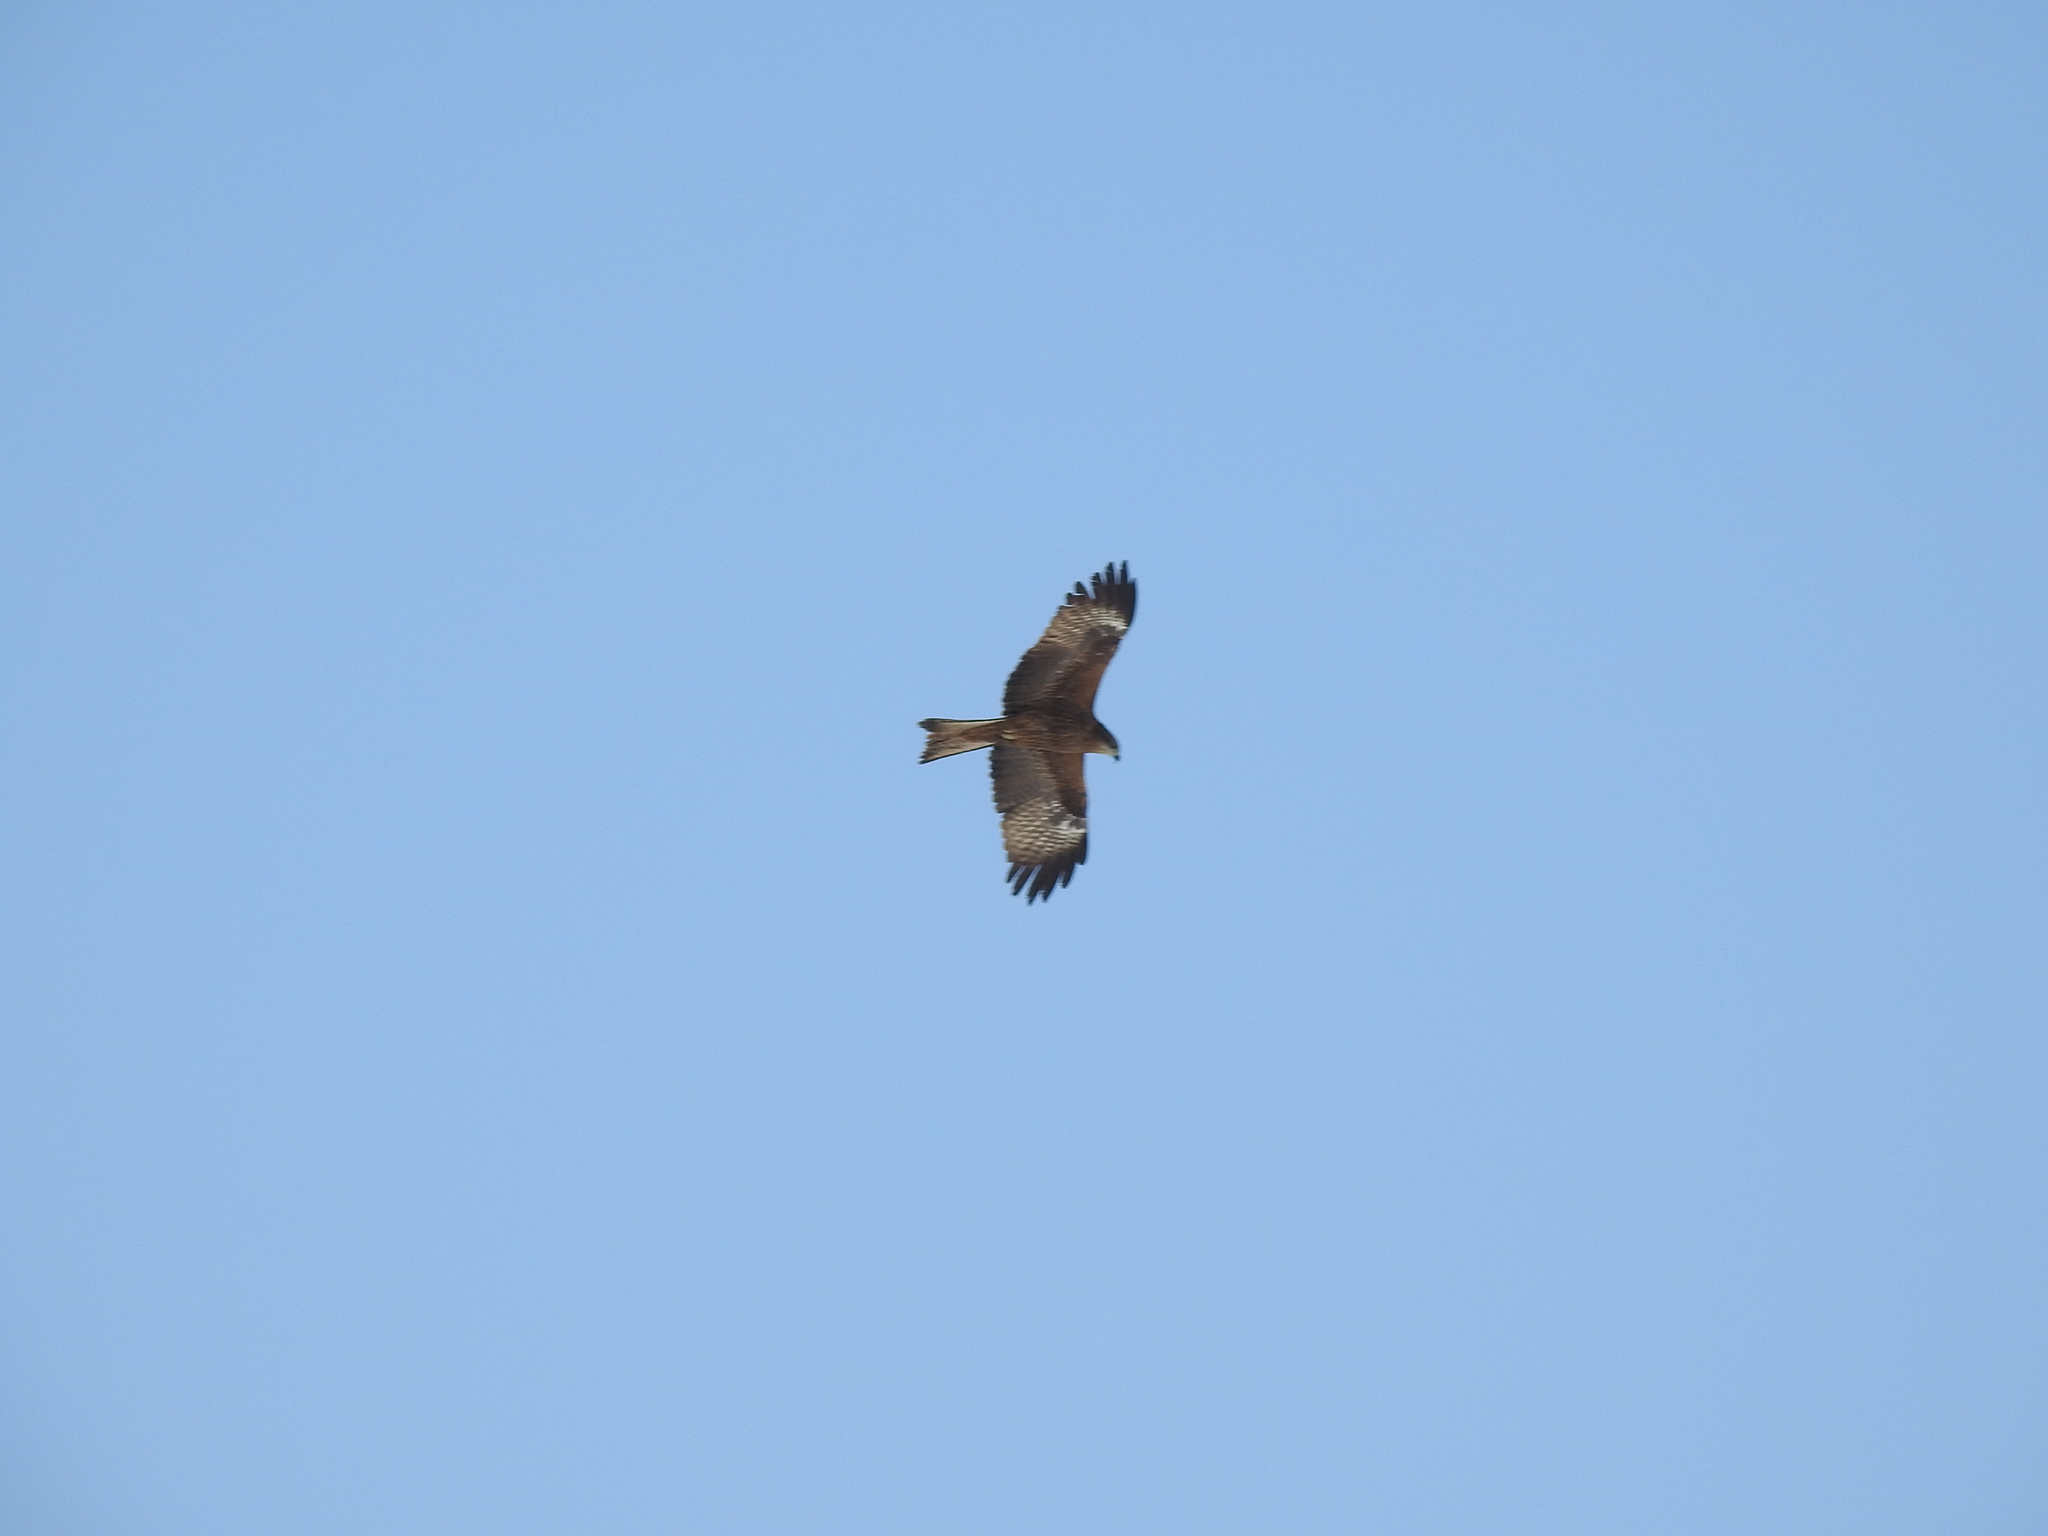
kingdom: Animalia
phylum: Chordata
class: Aves
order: Accipitriformes
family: Accipitridae
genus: Milvus
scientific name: Milvus migrans
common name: Black kite
